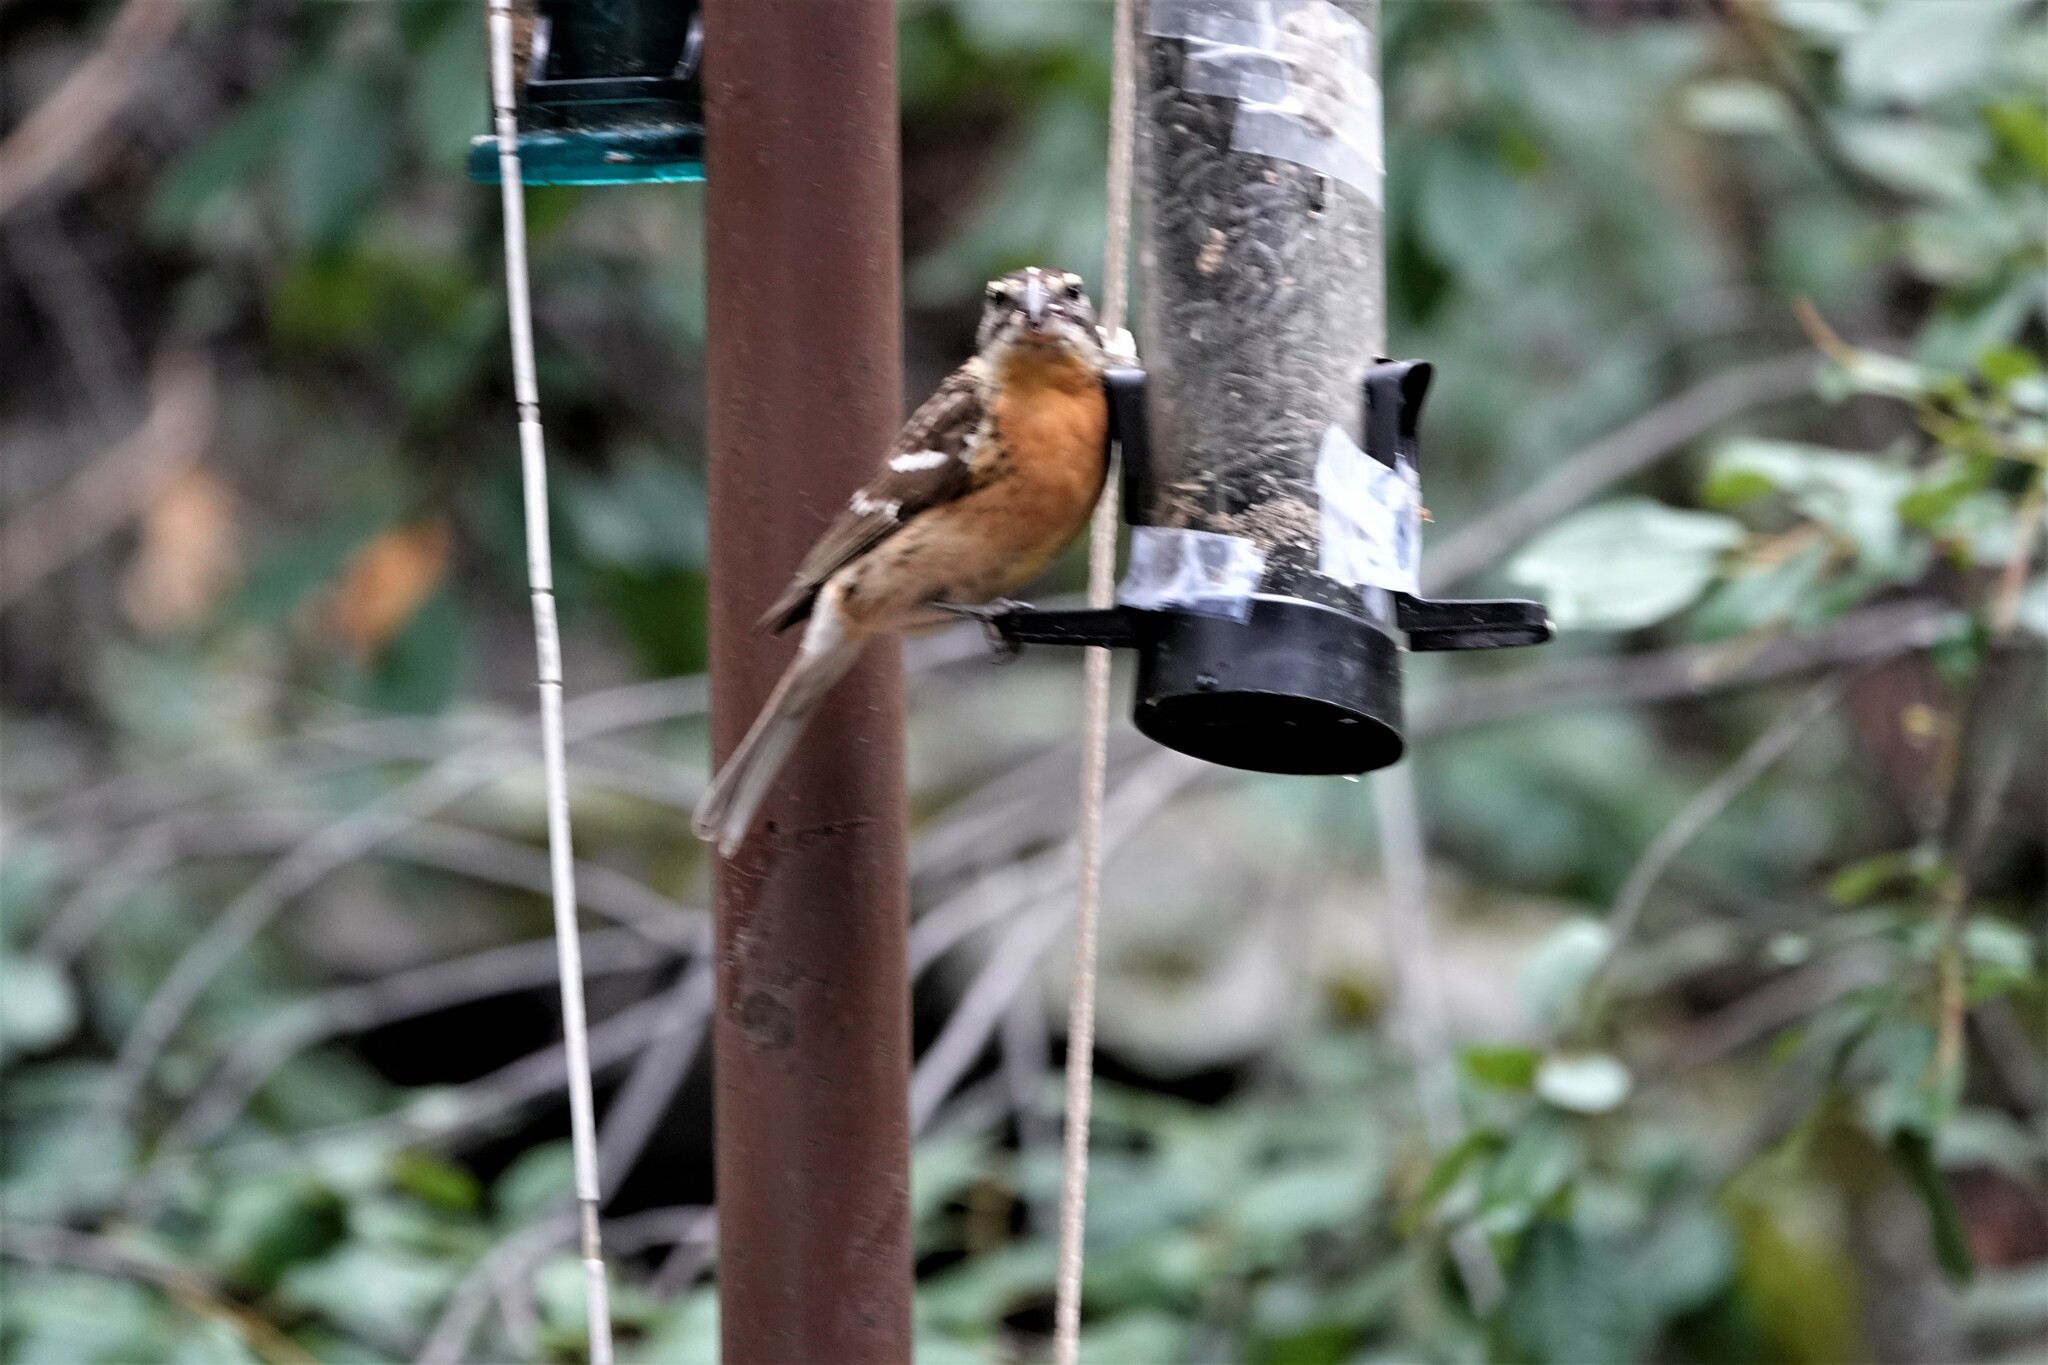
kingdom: Animalia
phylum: Chordata
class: Aves
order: Passeriformes
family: Cardinalidae
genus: Pheucticus
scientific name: Pheucticus melanocephalus
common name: Black-headed grosbeak
